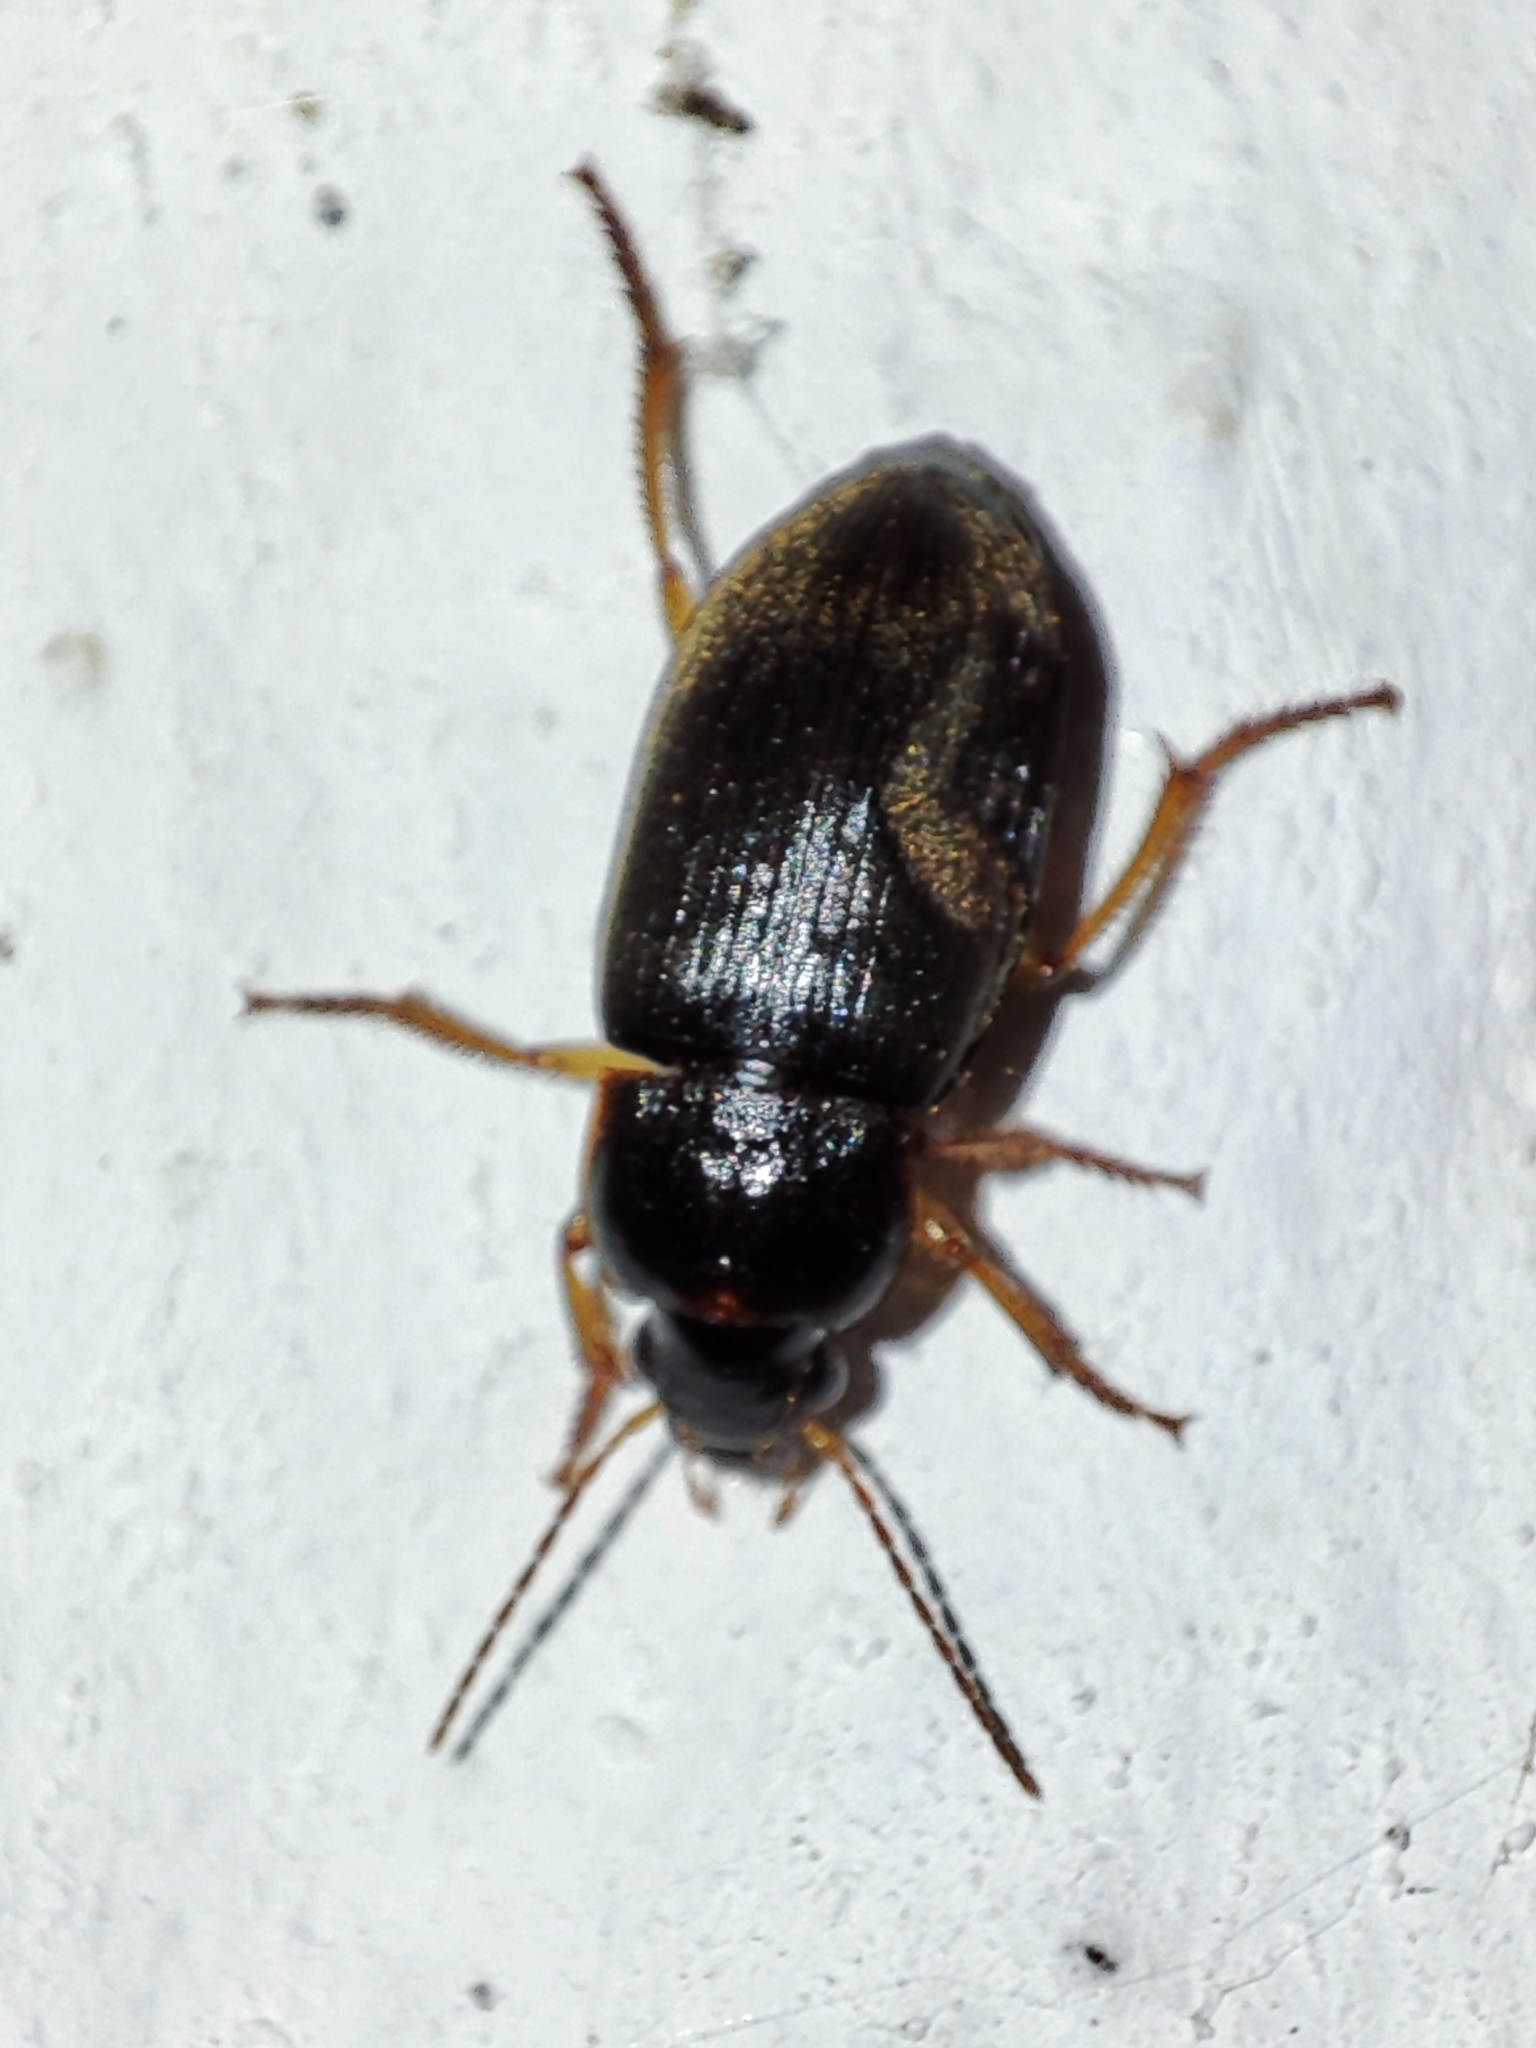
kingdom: Animalia
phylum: Arthropoda
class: Insecta
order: Coleoptera
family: Carabidae
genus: Harpalus
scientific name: Harpalus griseus
